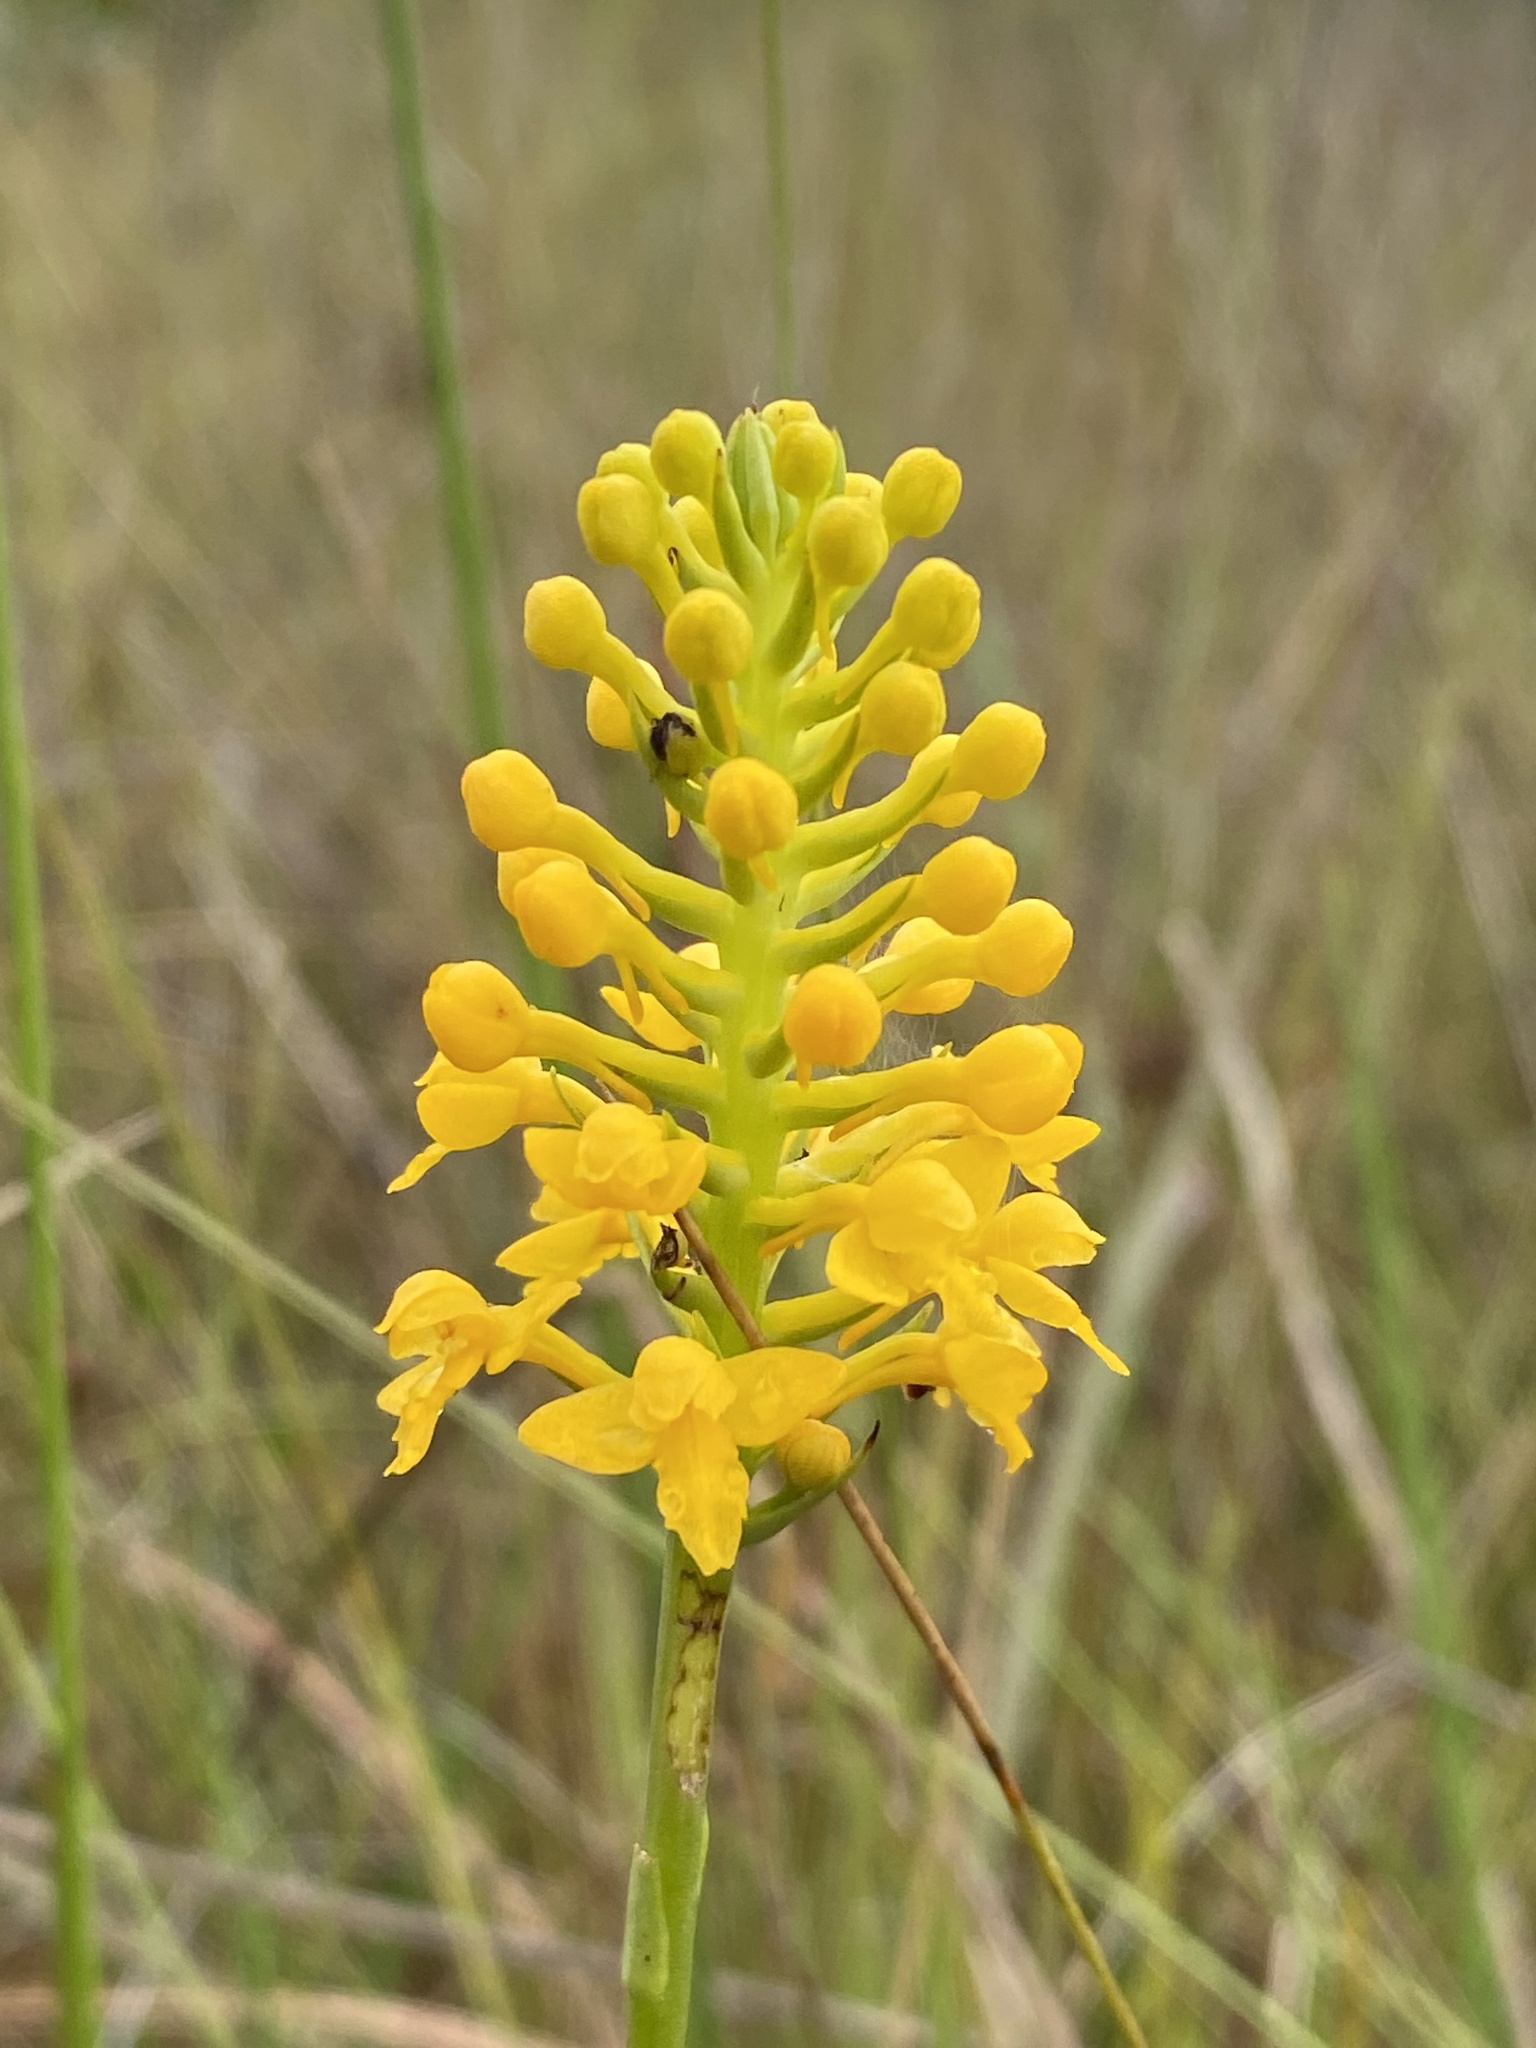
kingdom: Plantae
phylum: Tracheophyta
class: Liliopsida
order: Asparagales
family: Orchidaceae
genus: Platanthera
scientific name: Platanthera integra
